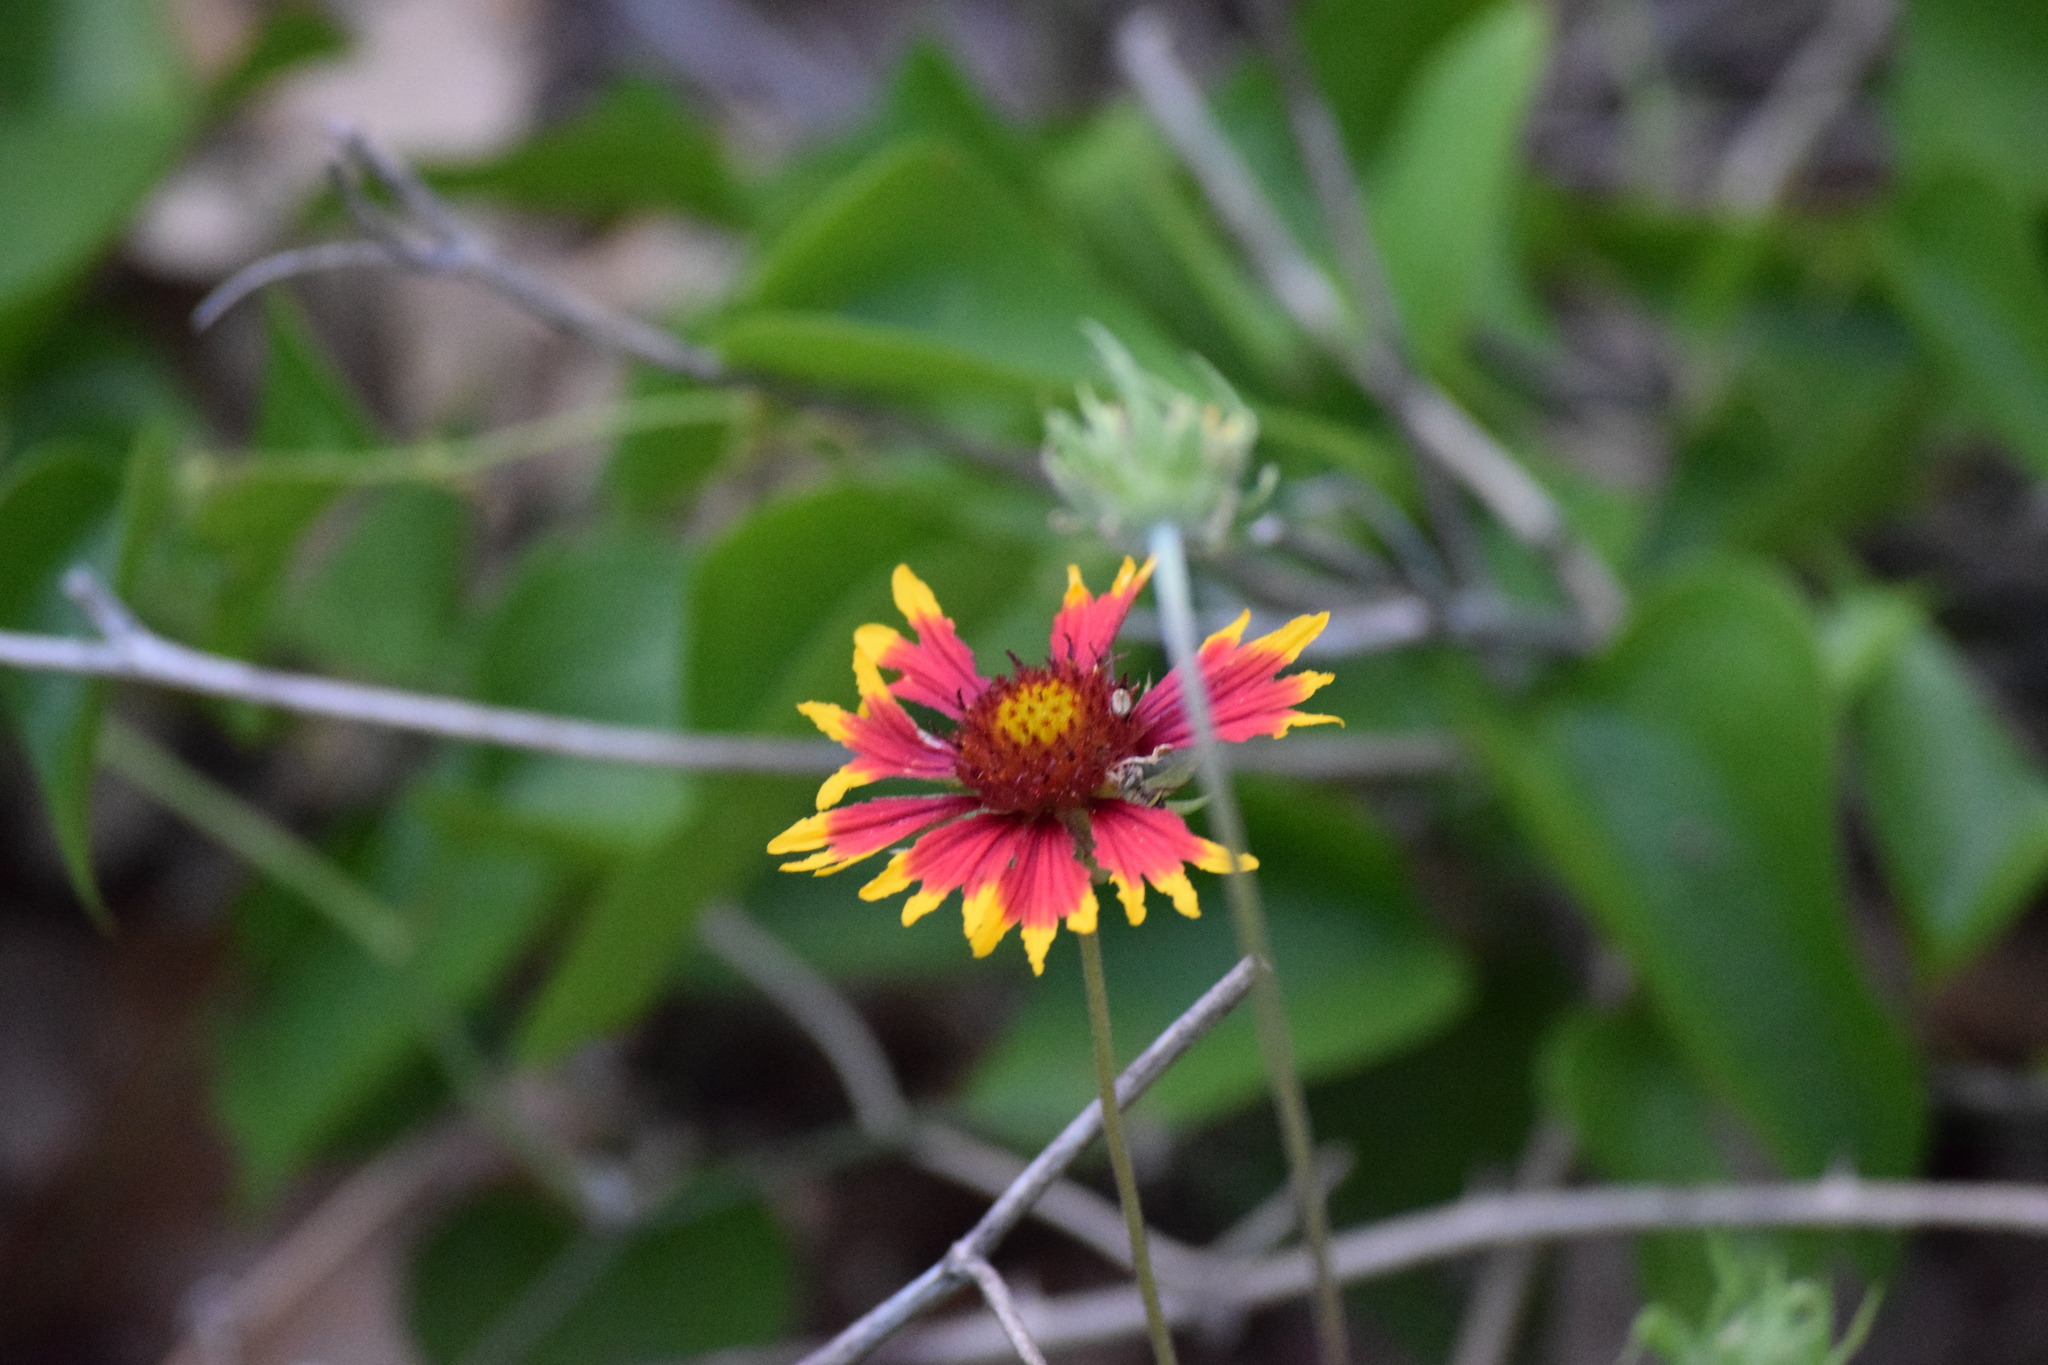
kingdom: Plantae
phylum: Tracheophyta
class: Magnoliopsida
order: Asterales
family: Asteraceae
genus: Gaillardia
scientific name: Gaillardia pulchella
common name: Firewheel
